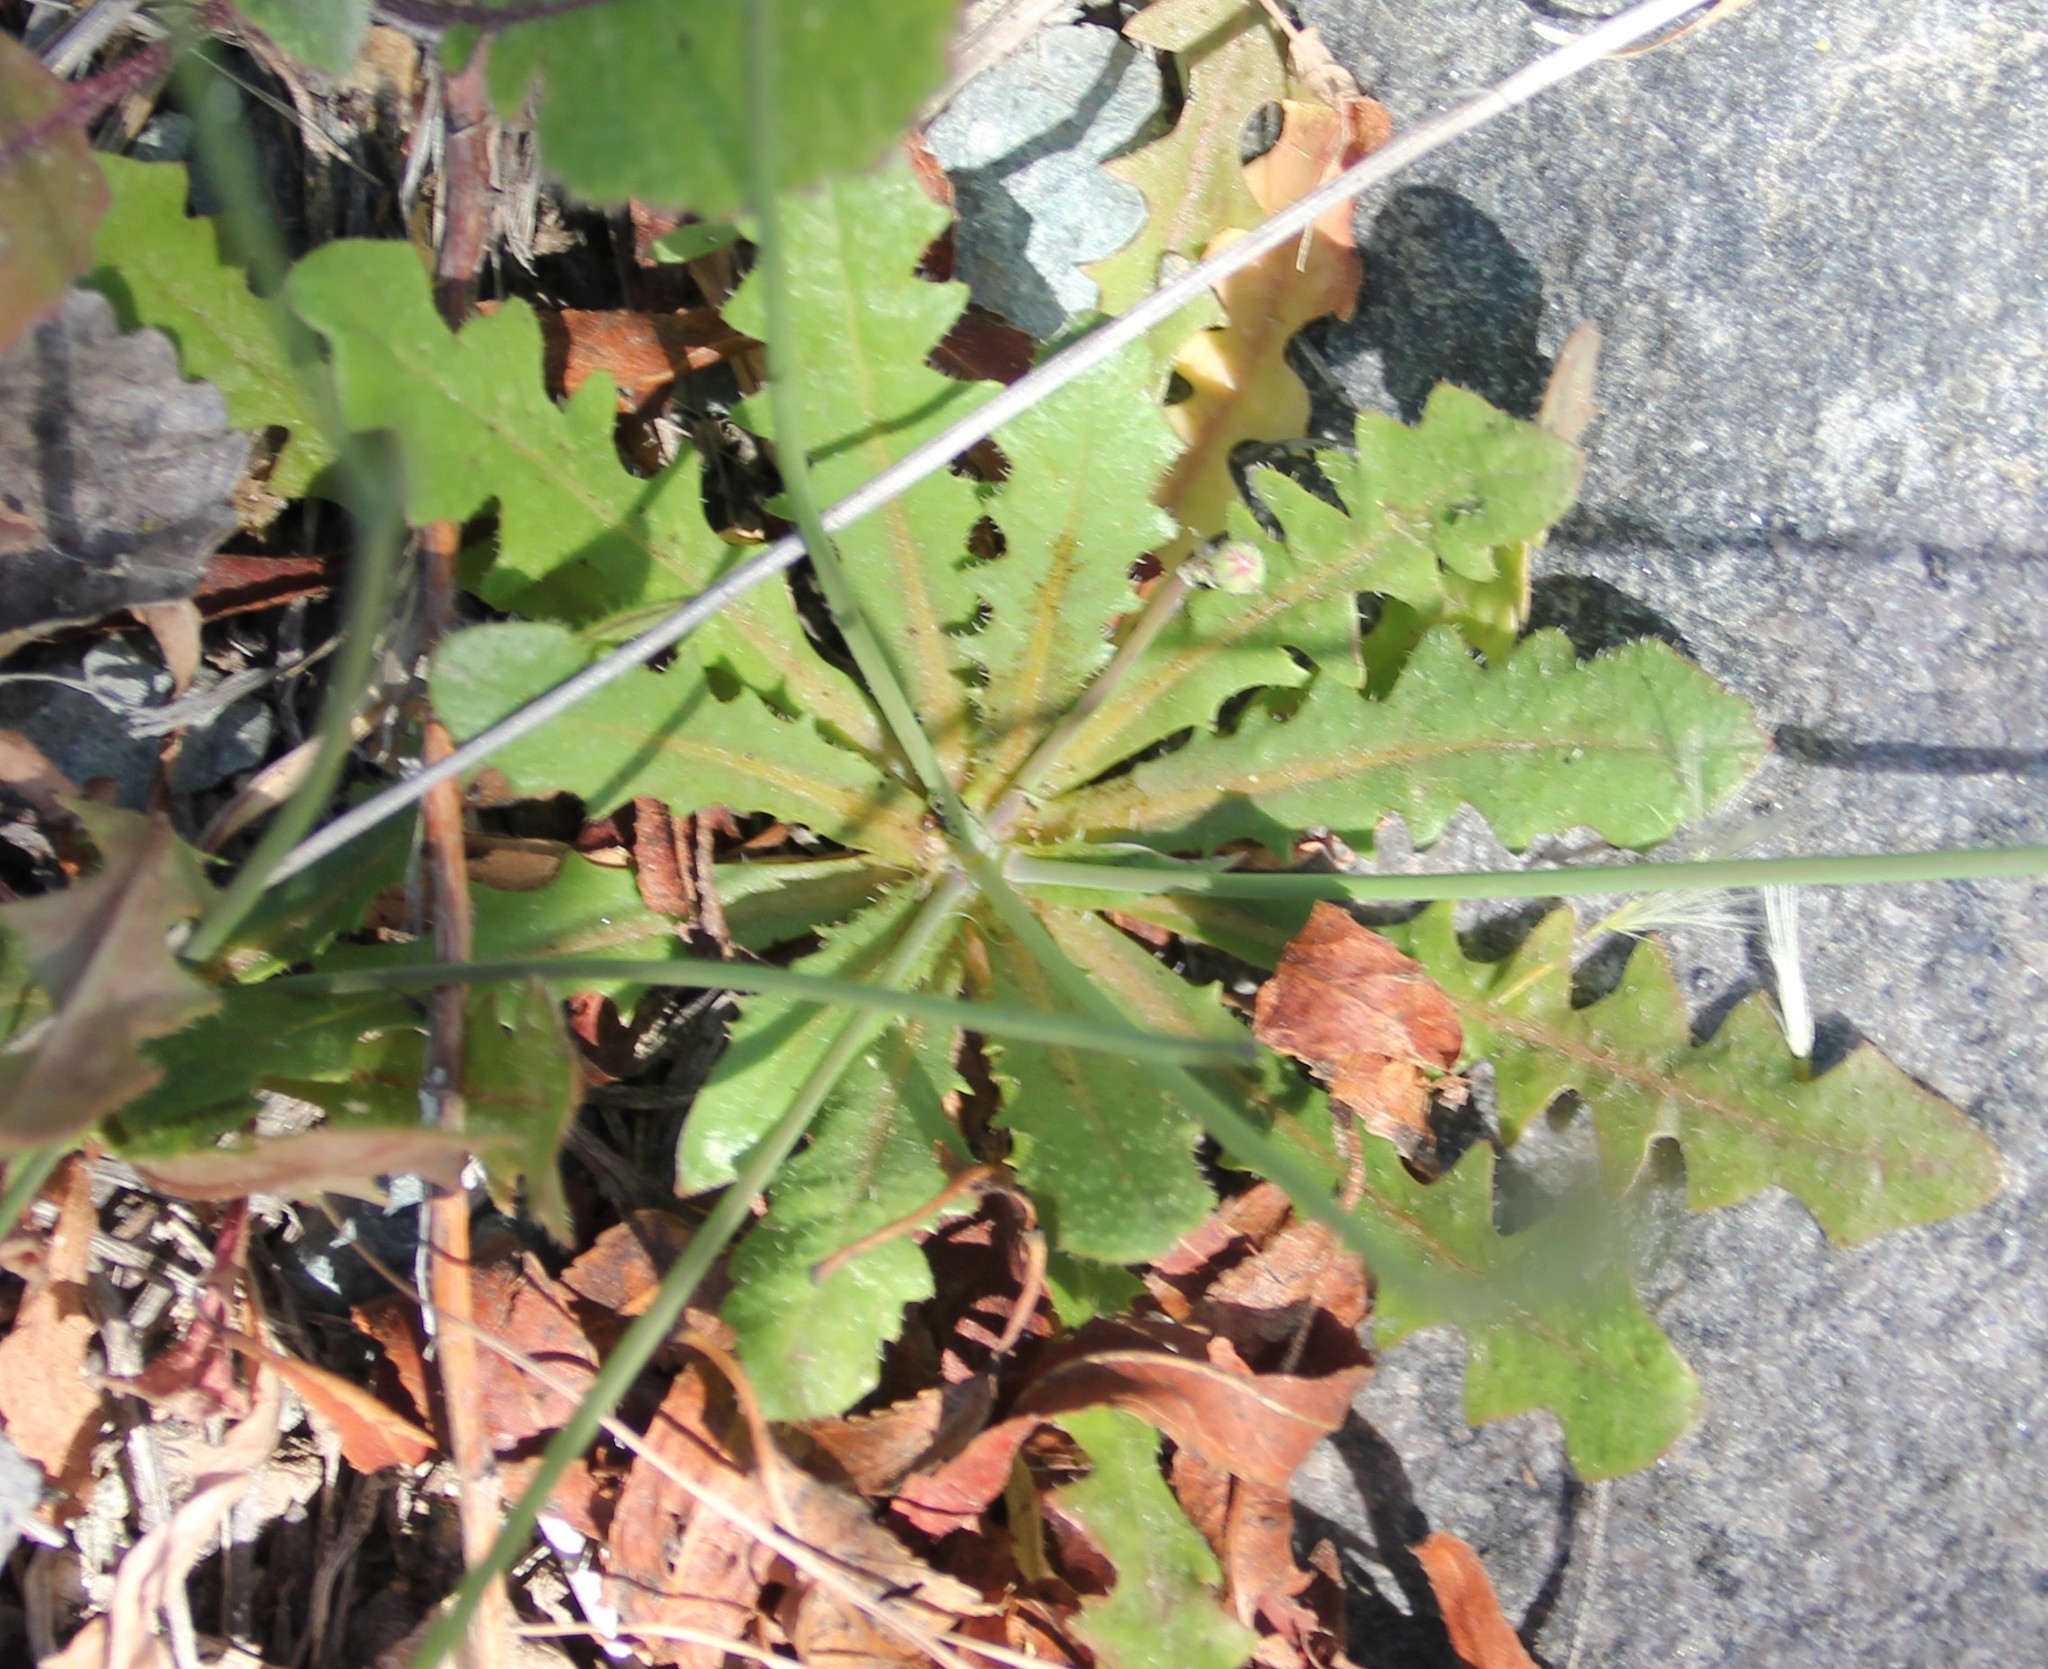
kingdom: Plantae
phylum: Tracheophyta
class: Magnoliopsida
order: Asterales
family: Asteraceae
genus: Hypochaeris
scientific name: Hypochaeris glabra
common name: Smooth catsear
